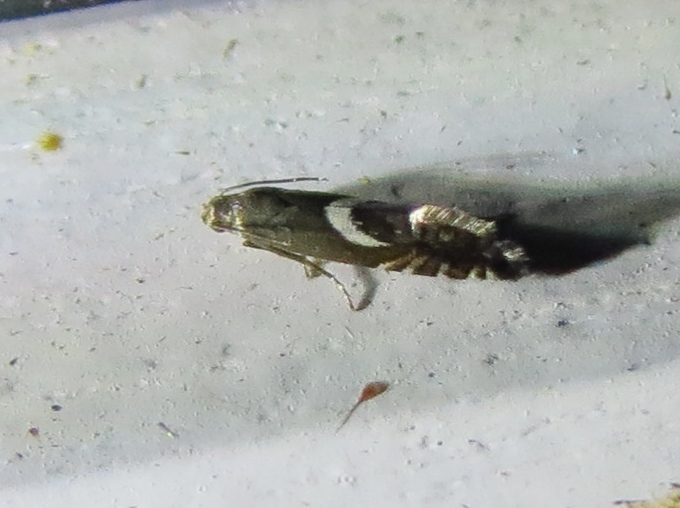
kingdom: Animalia
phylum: Arthropoda
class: Insecta
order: Lepidoptera
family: Glyphipterigidae
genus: Glyphipterix
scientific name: Glyphipterix Diploschizia impigritella
